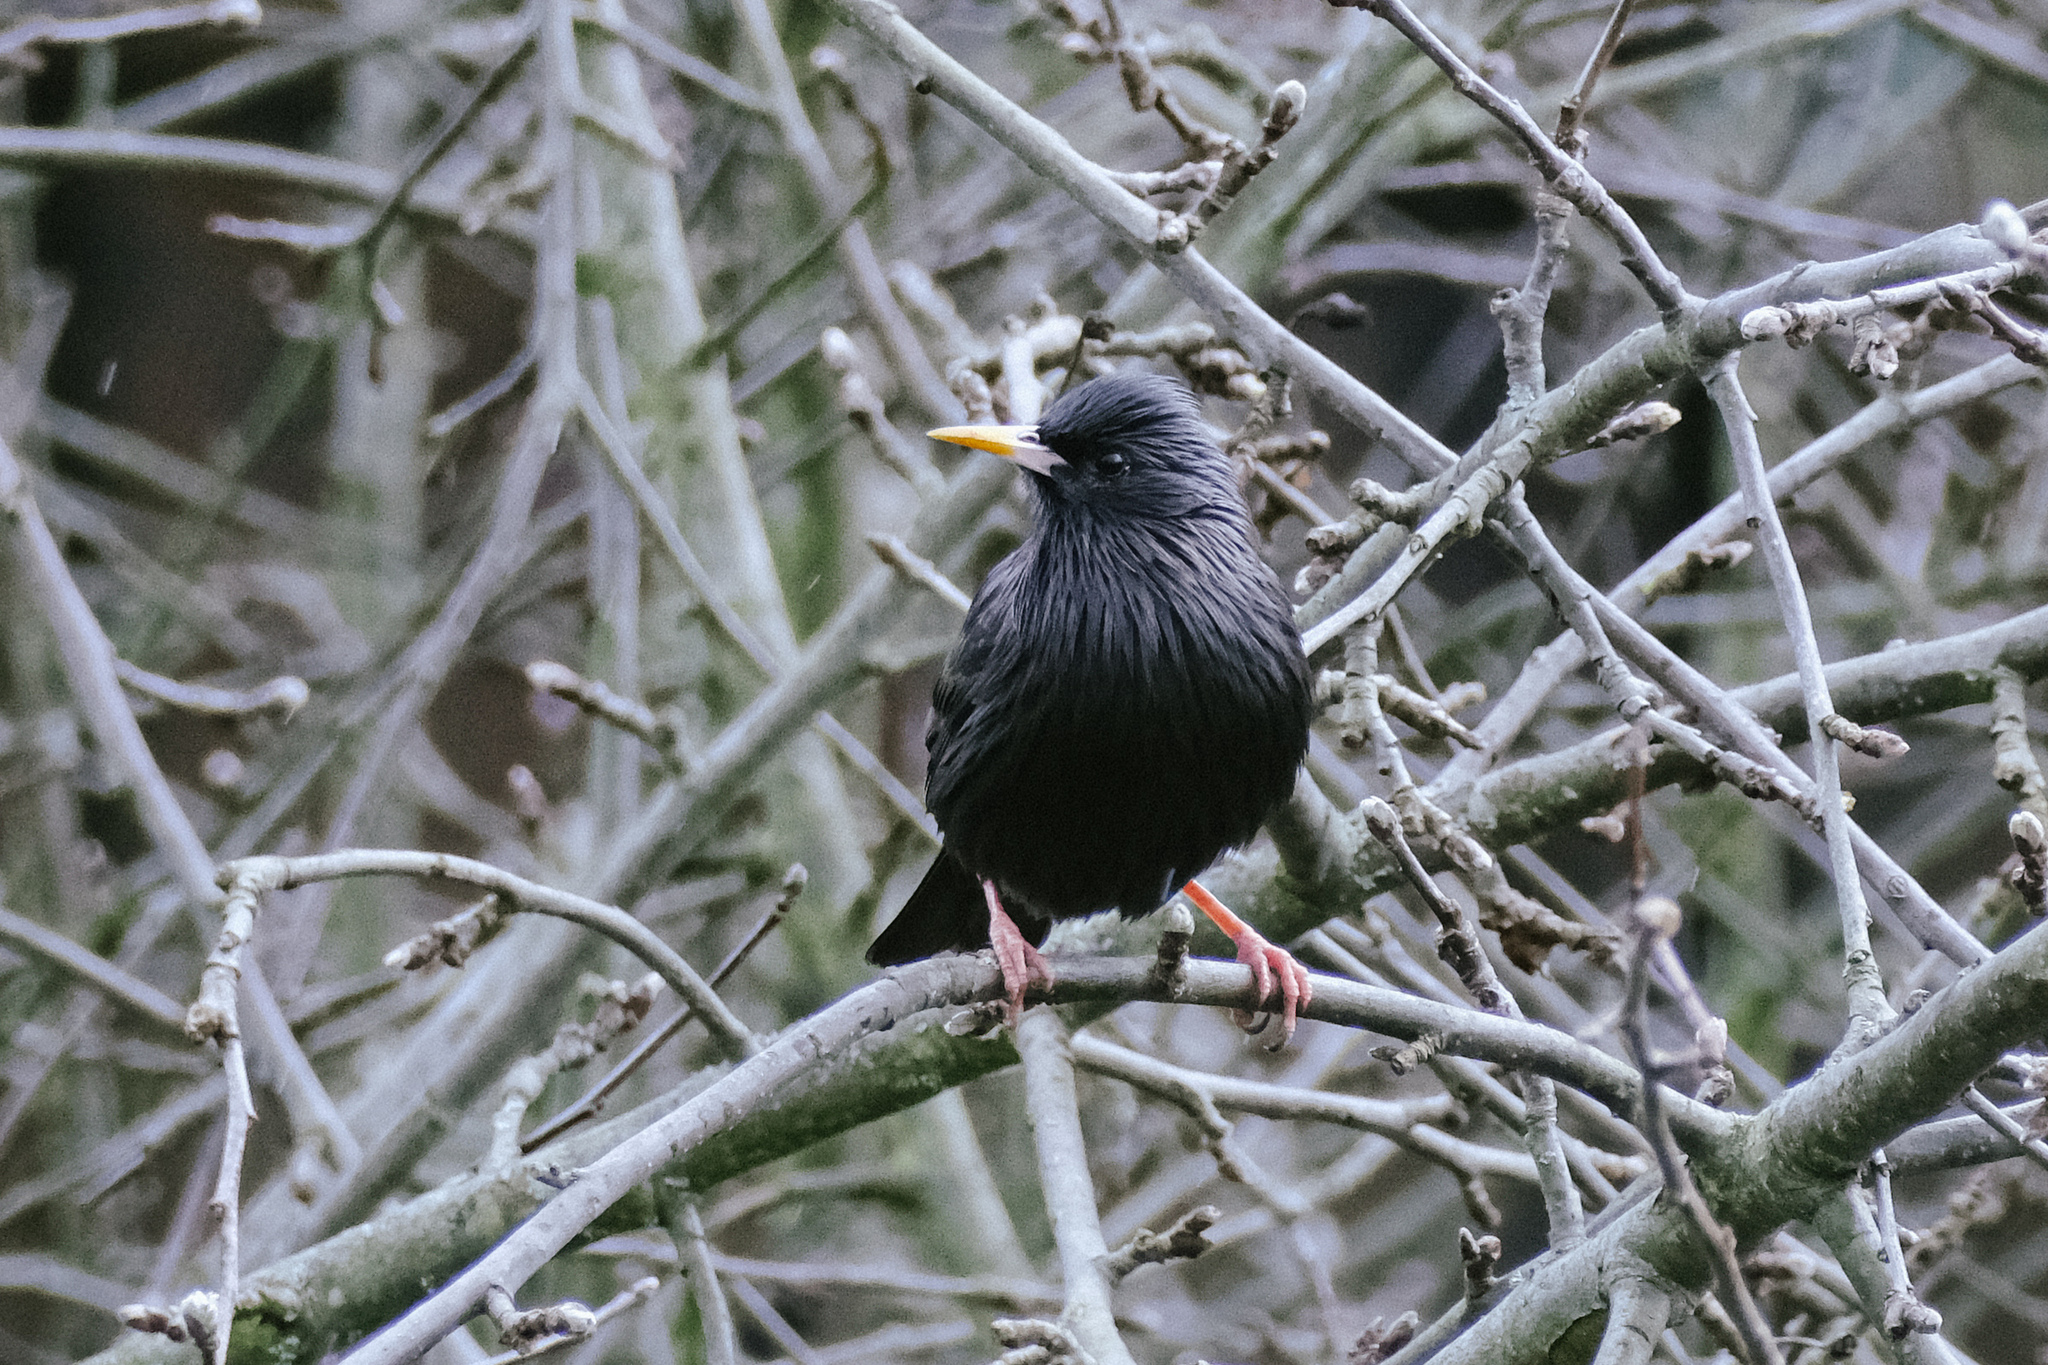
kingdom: Animalia
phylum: Chordata
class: Aves
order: Passeriformes
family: Sturnidae
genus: Sturnus
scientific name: Sturnus unicolor
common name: Spotless starling
